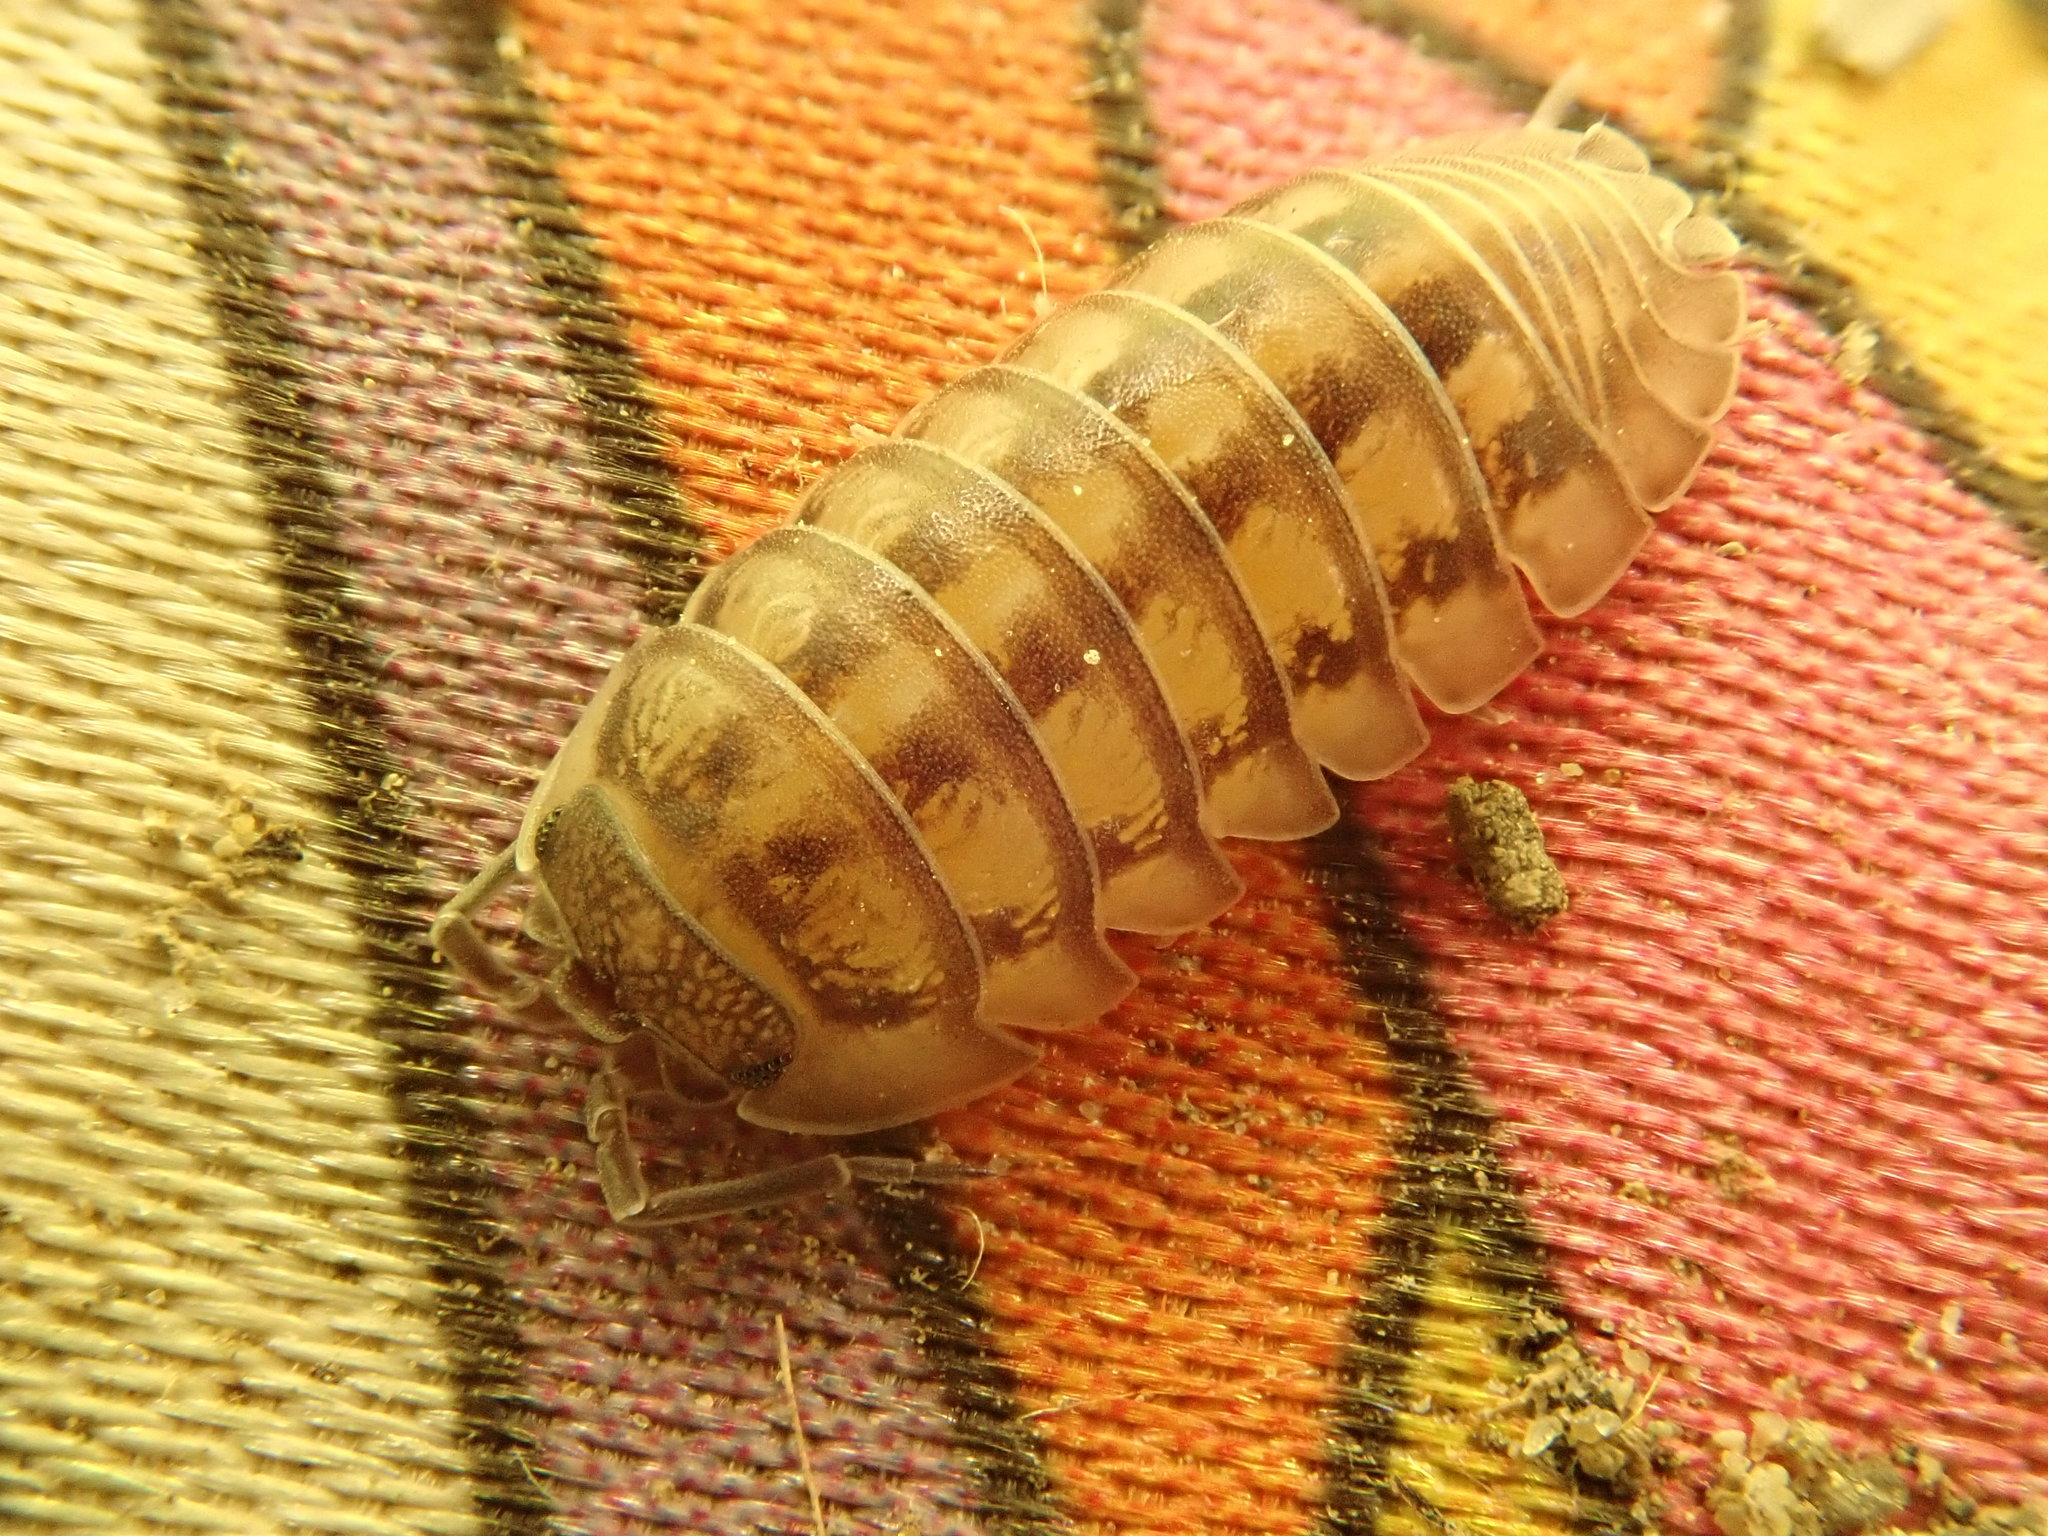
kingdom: Animalia
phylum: Arthropoda
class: Malacostraca
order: Isopoda
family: Armadillidiidae
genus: Armadillidium
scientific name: Armadillidium nasatum
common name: Isopod
